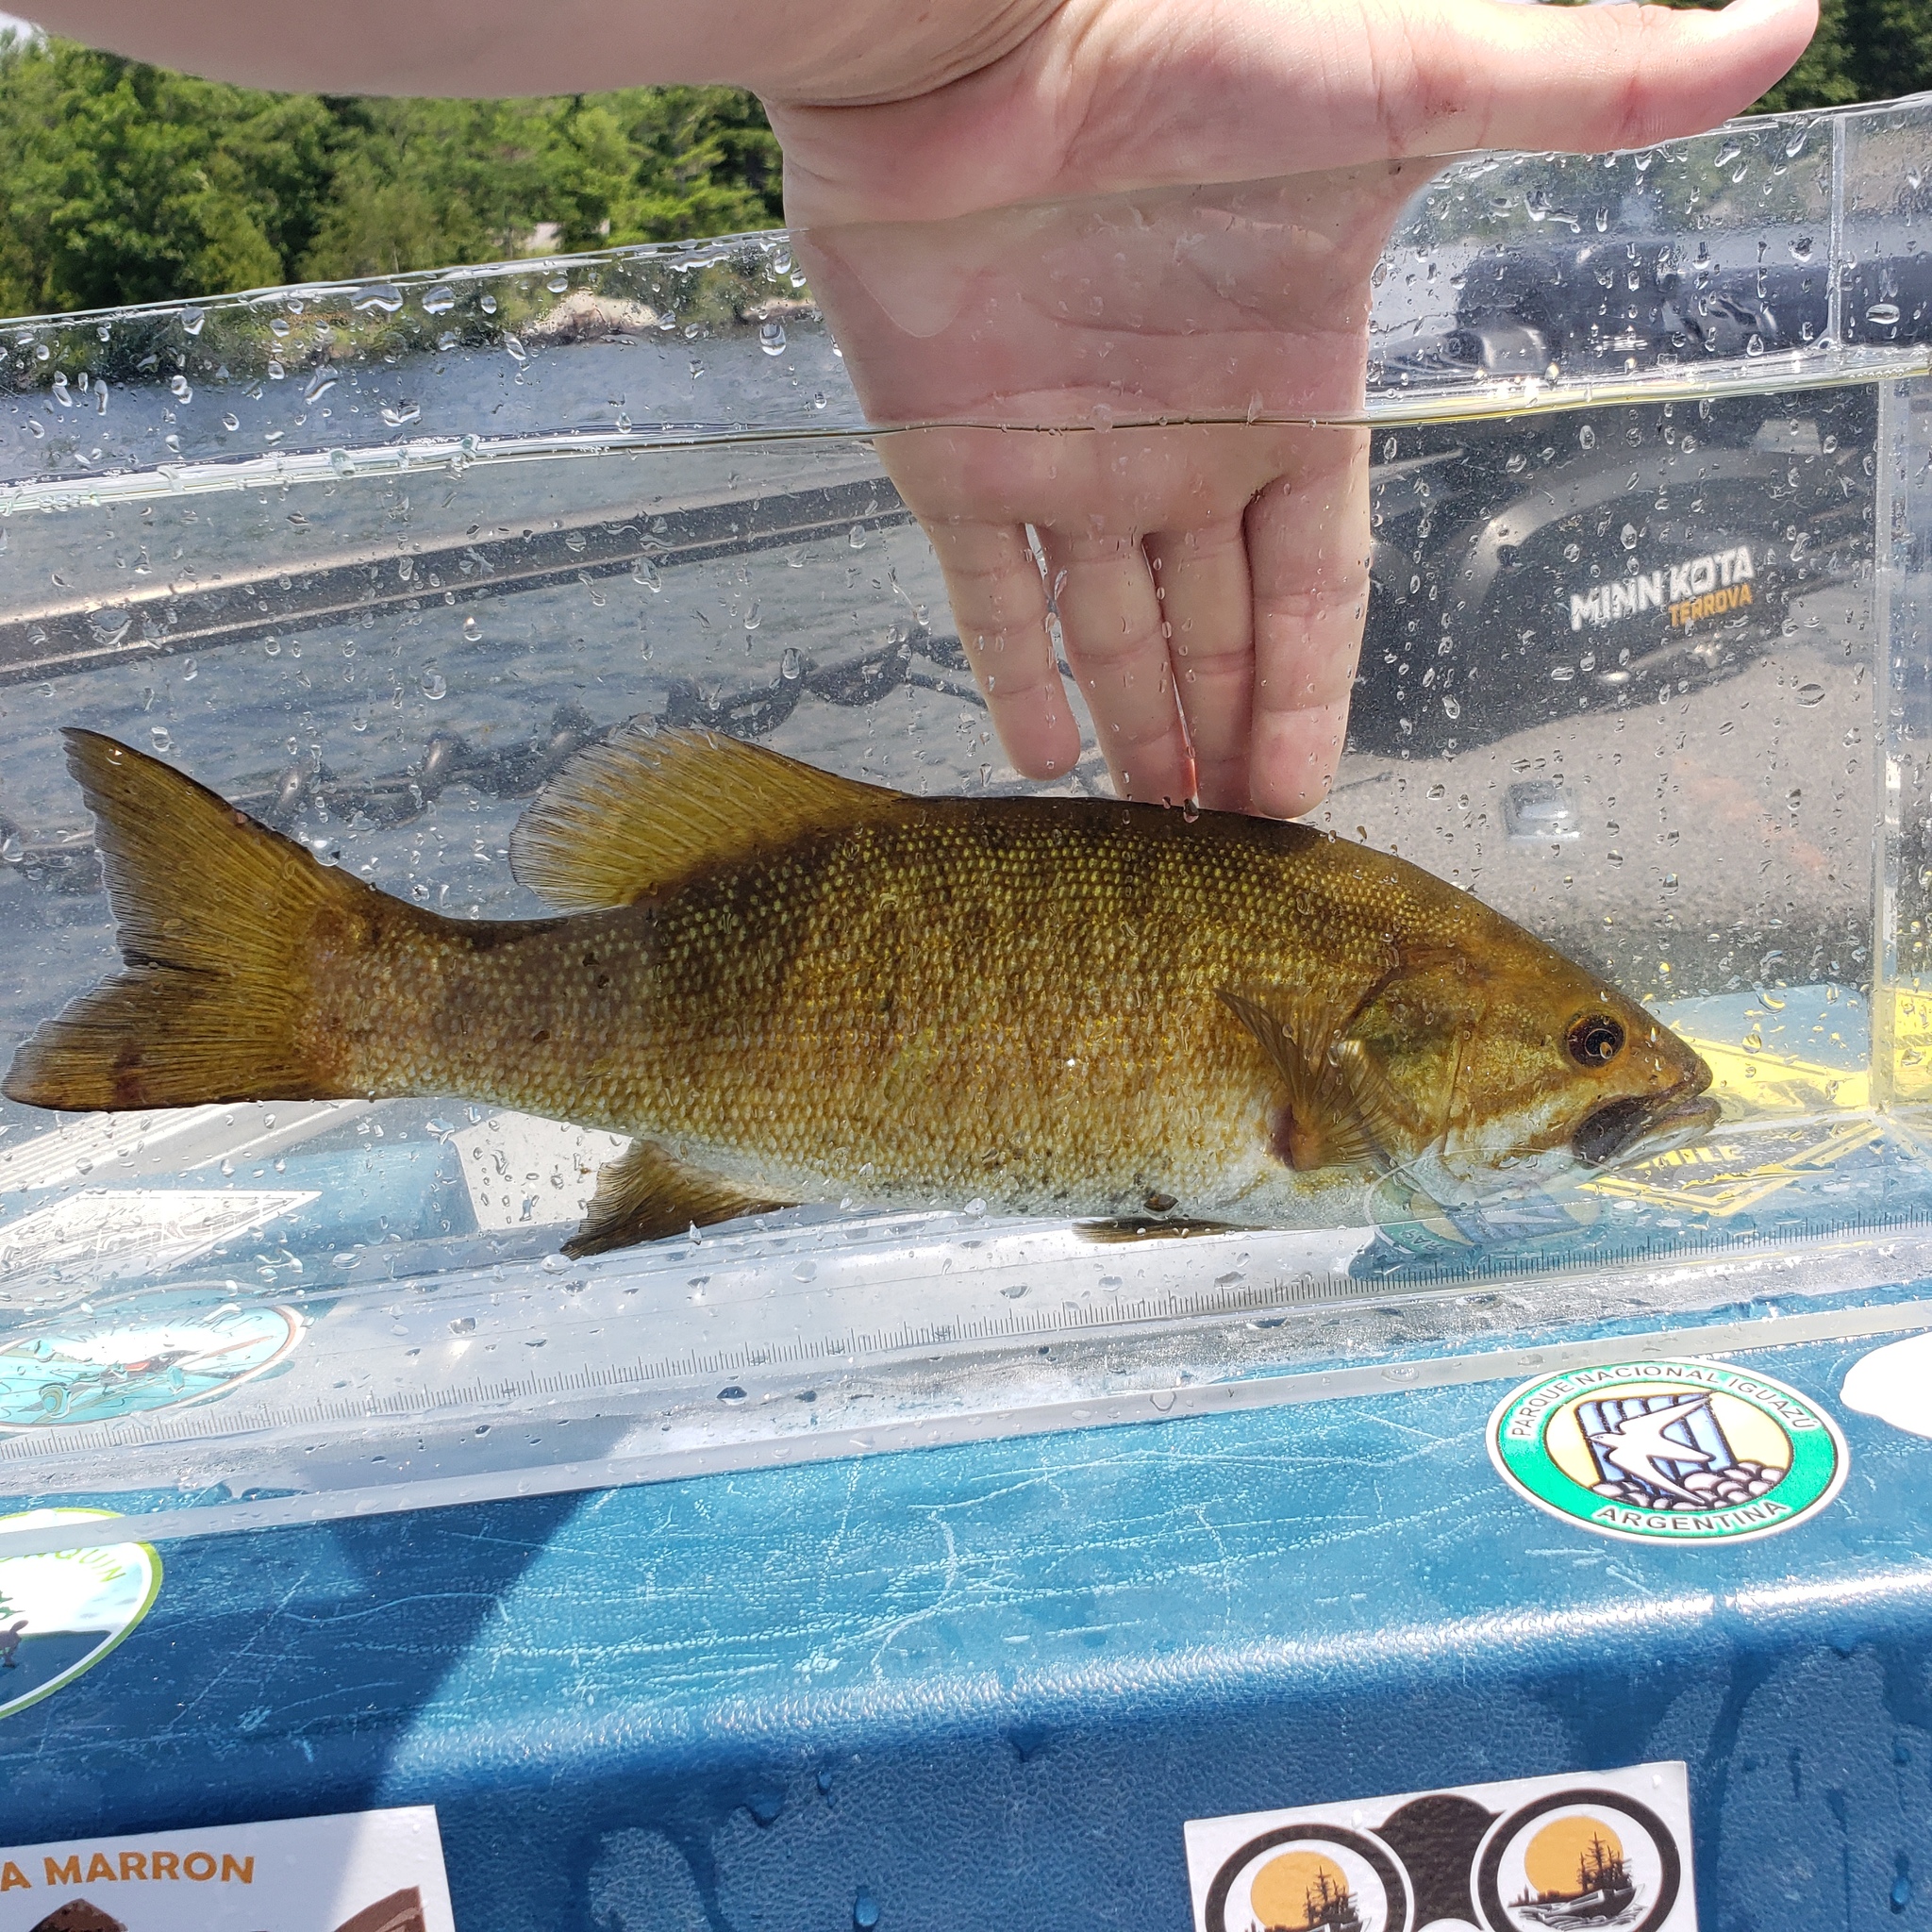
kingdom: Animalia
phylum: Chordata
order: Perciformes
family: Centrarchidae
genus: Micropterus
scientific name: Micropterus dolomieu
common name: Smallmouth bass
